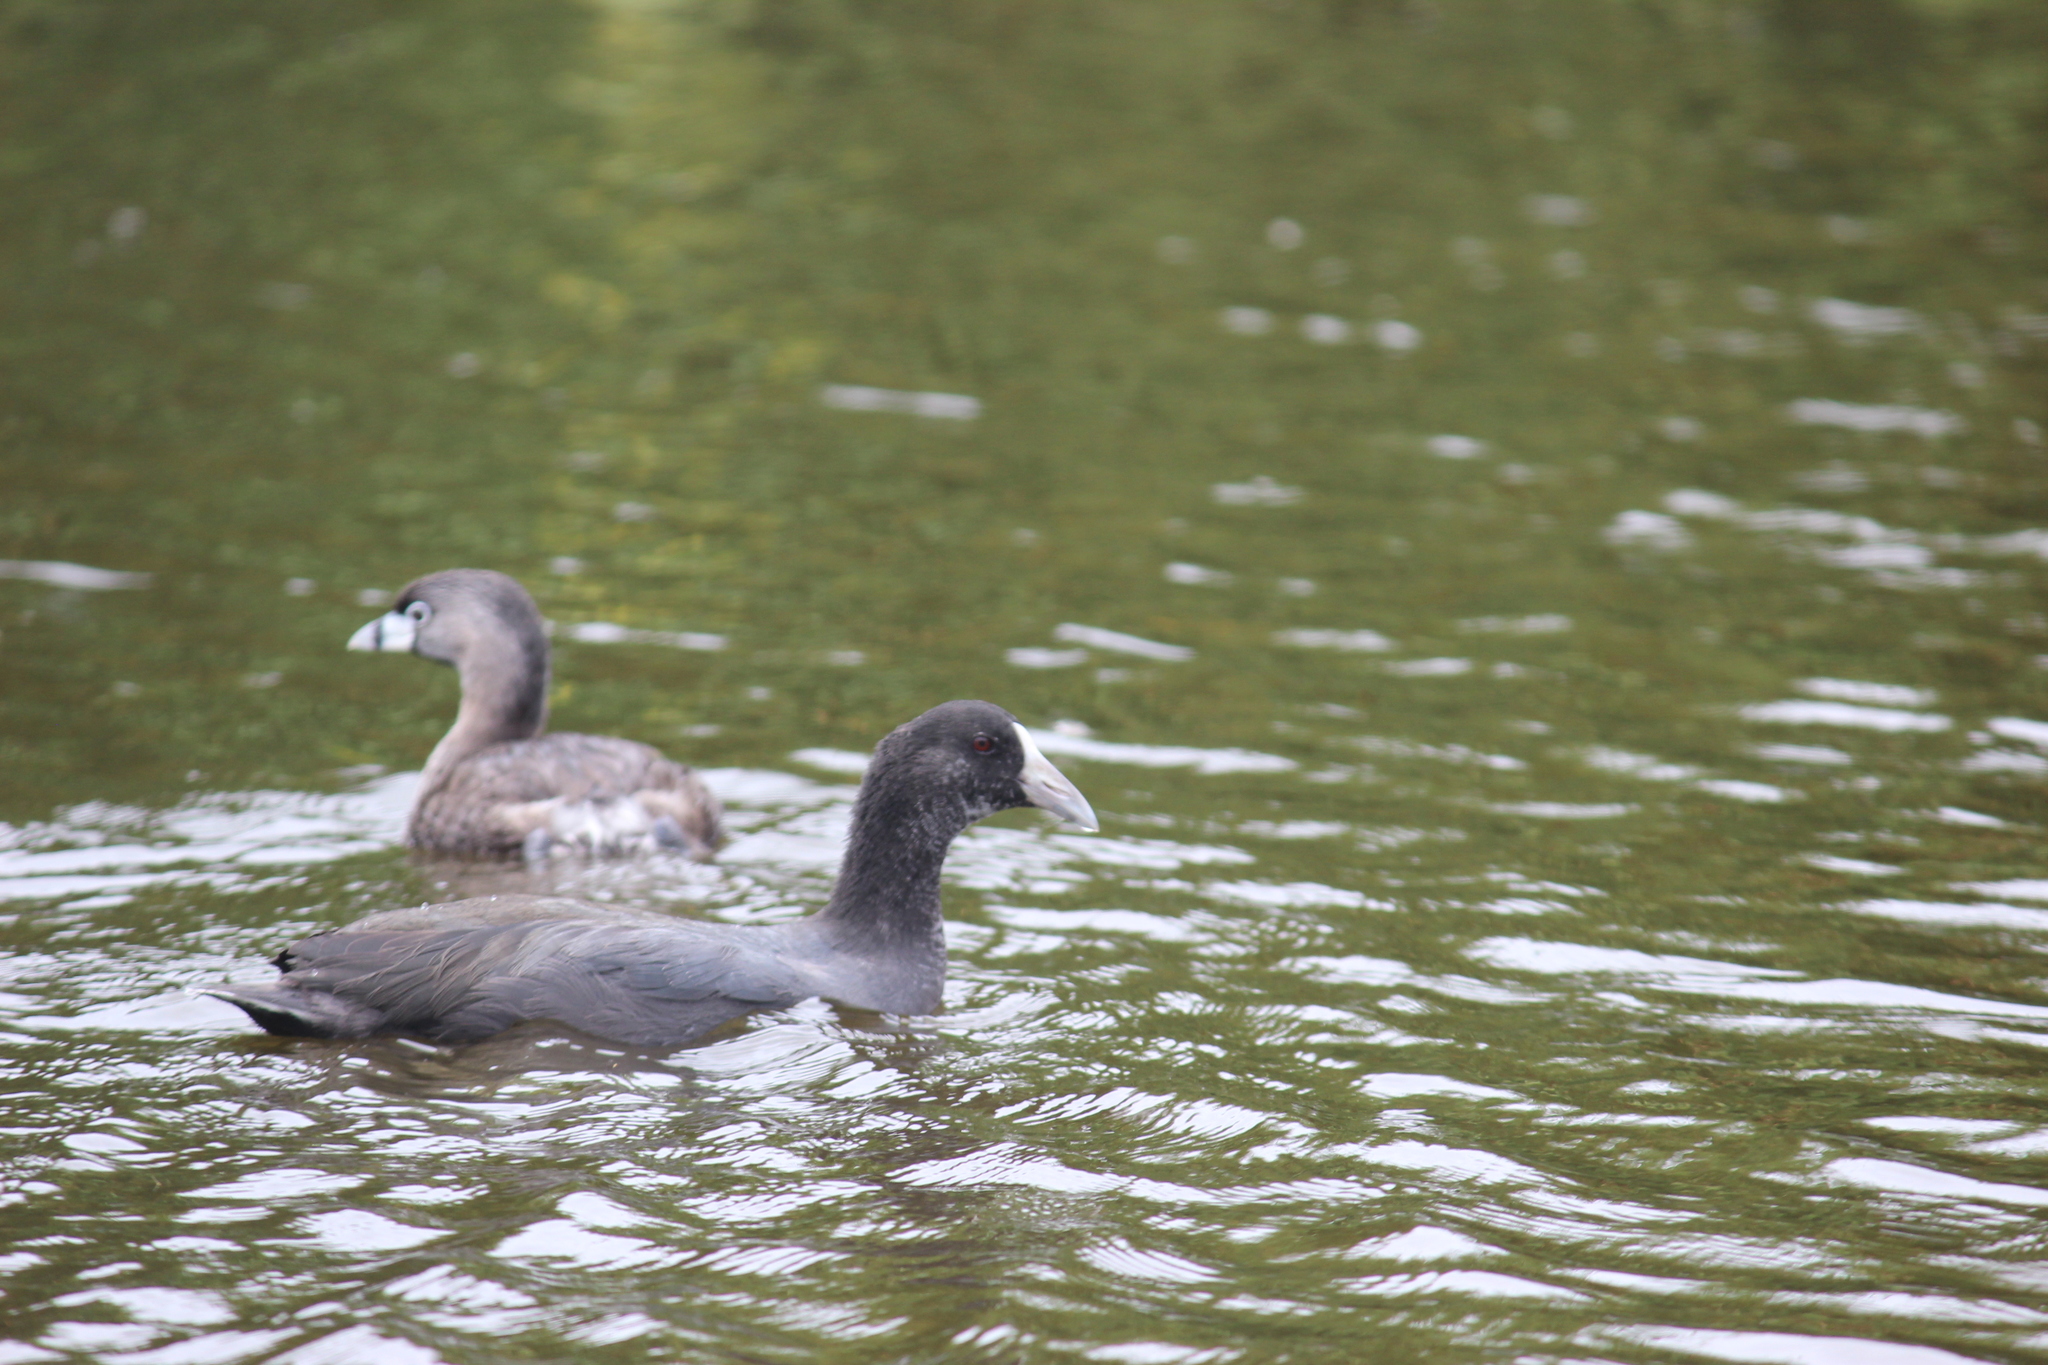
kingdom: Animalia
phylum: Chordata
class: Aves
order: Gruiformes
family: Rallidae
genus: Fulica
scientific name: Fulica ardesiaca
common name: Andean coot
